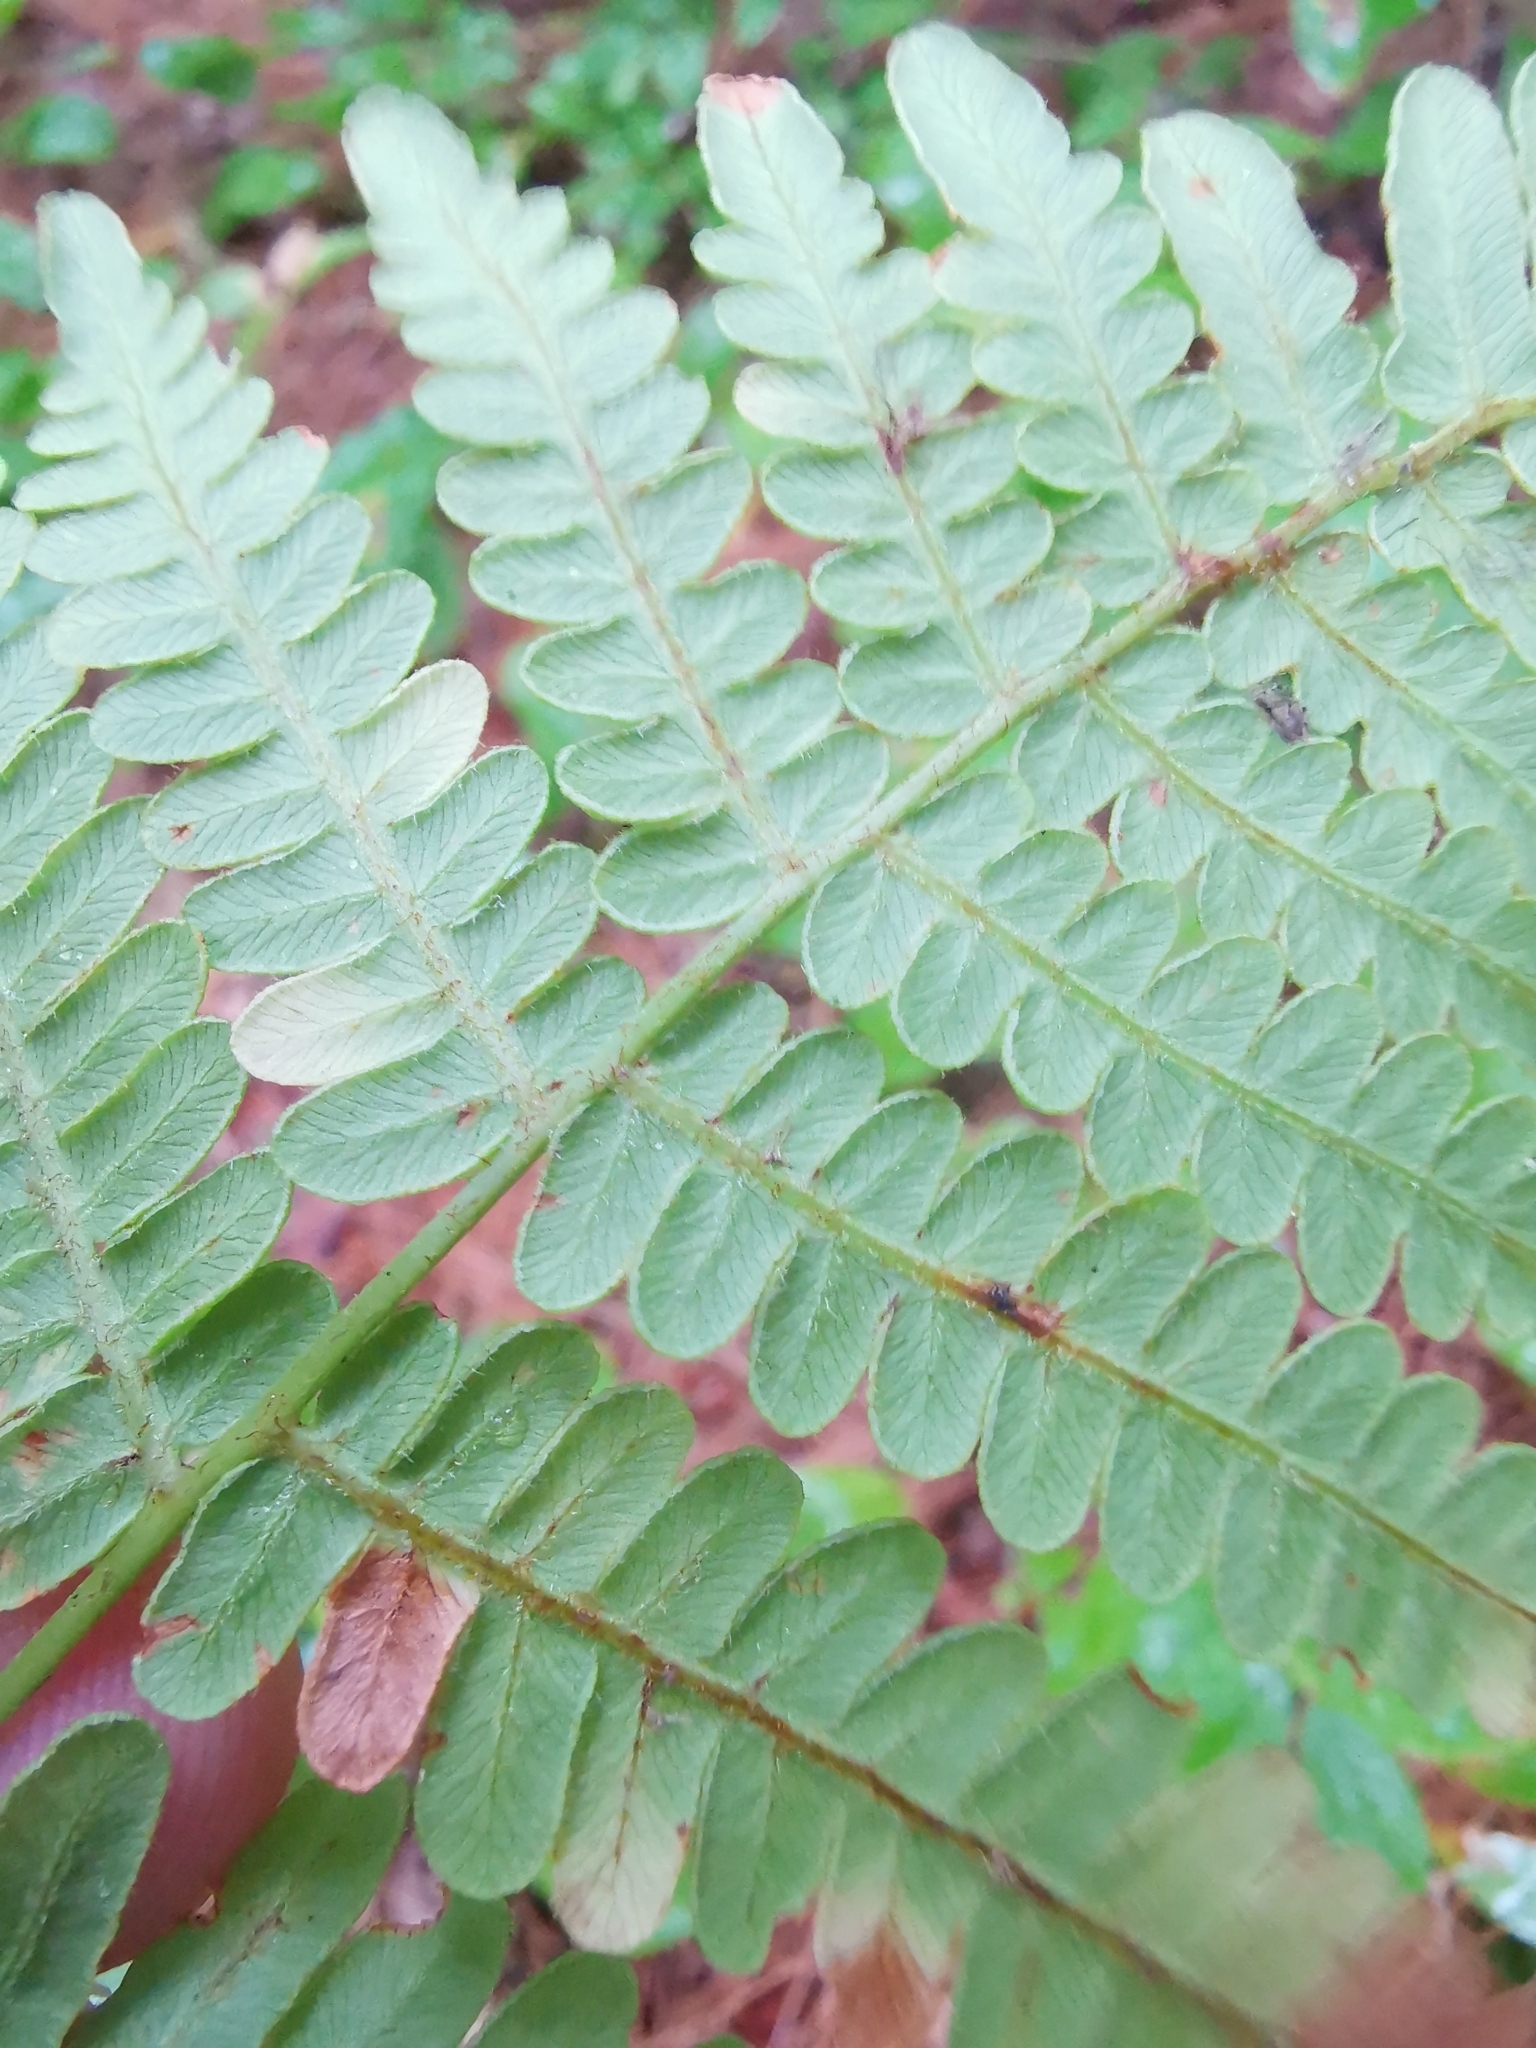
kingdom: Plantae
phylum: Tracheophyta
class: Polypodiopsida
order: Polypodiales
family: Dennstaedtiaceae
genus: Pteridium
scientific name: Pteridium aquilinum
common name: Bracken
